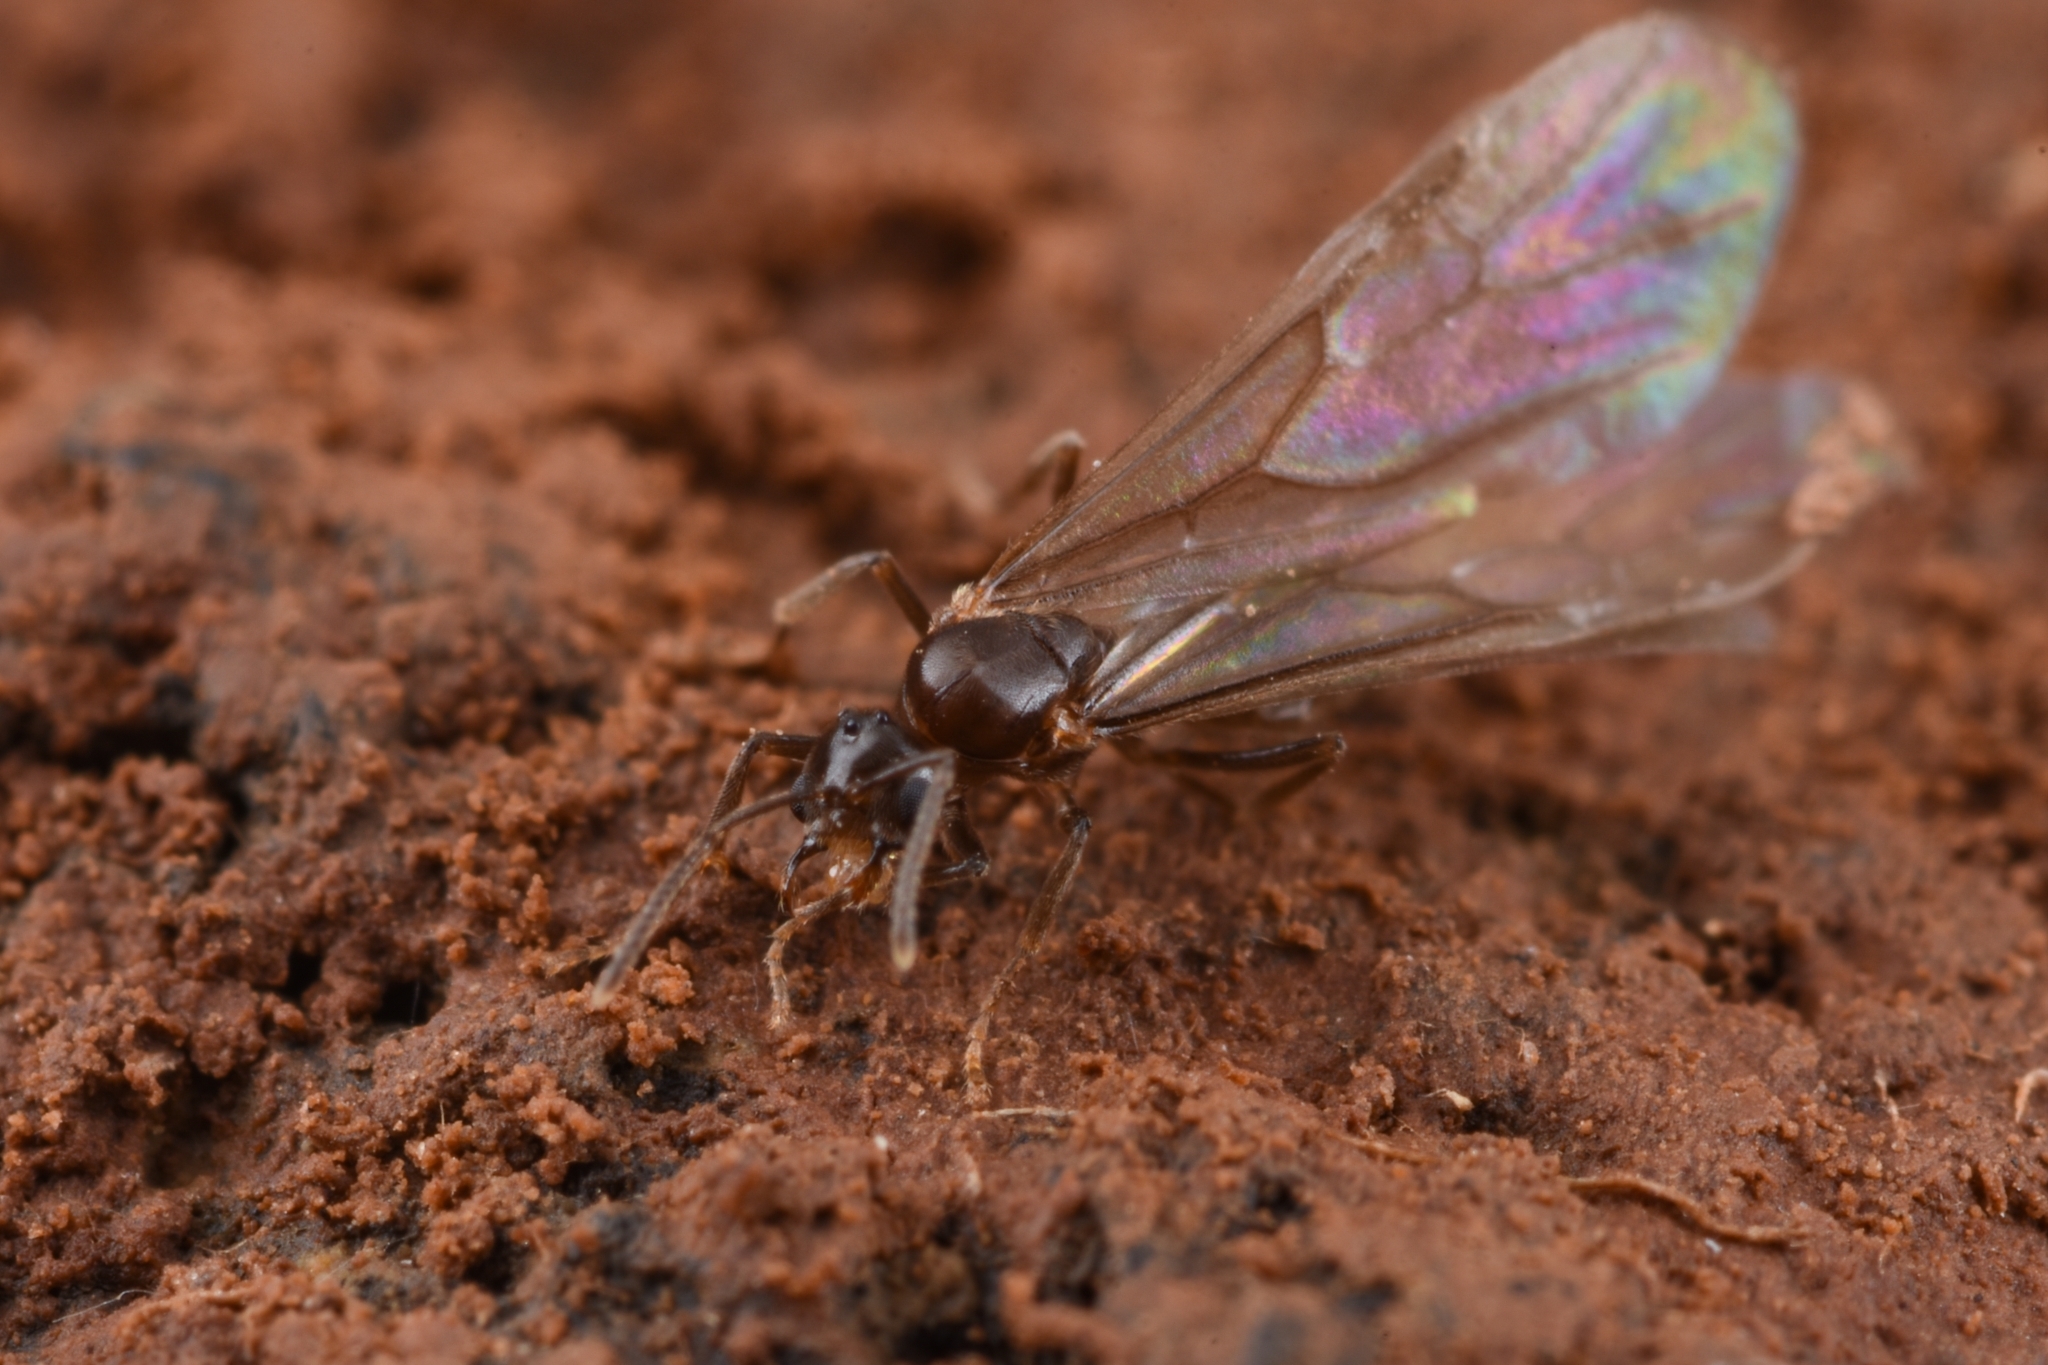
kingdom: Animalia
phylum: Arthropoda
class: Insecta
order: Hymenoptera
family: Formicidae
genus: Acropyga
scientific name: Acropyga sauteri
